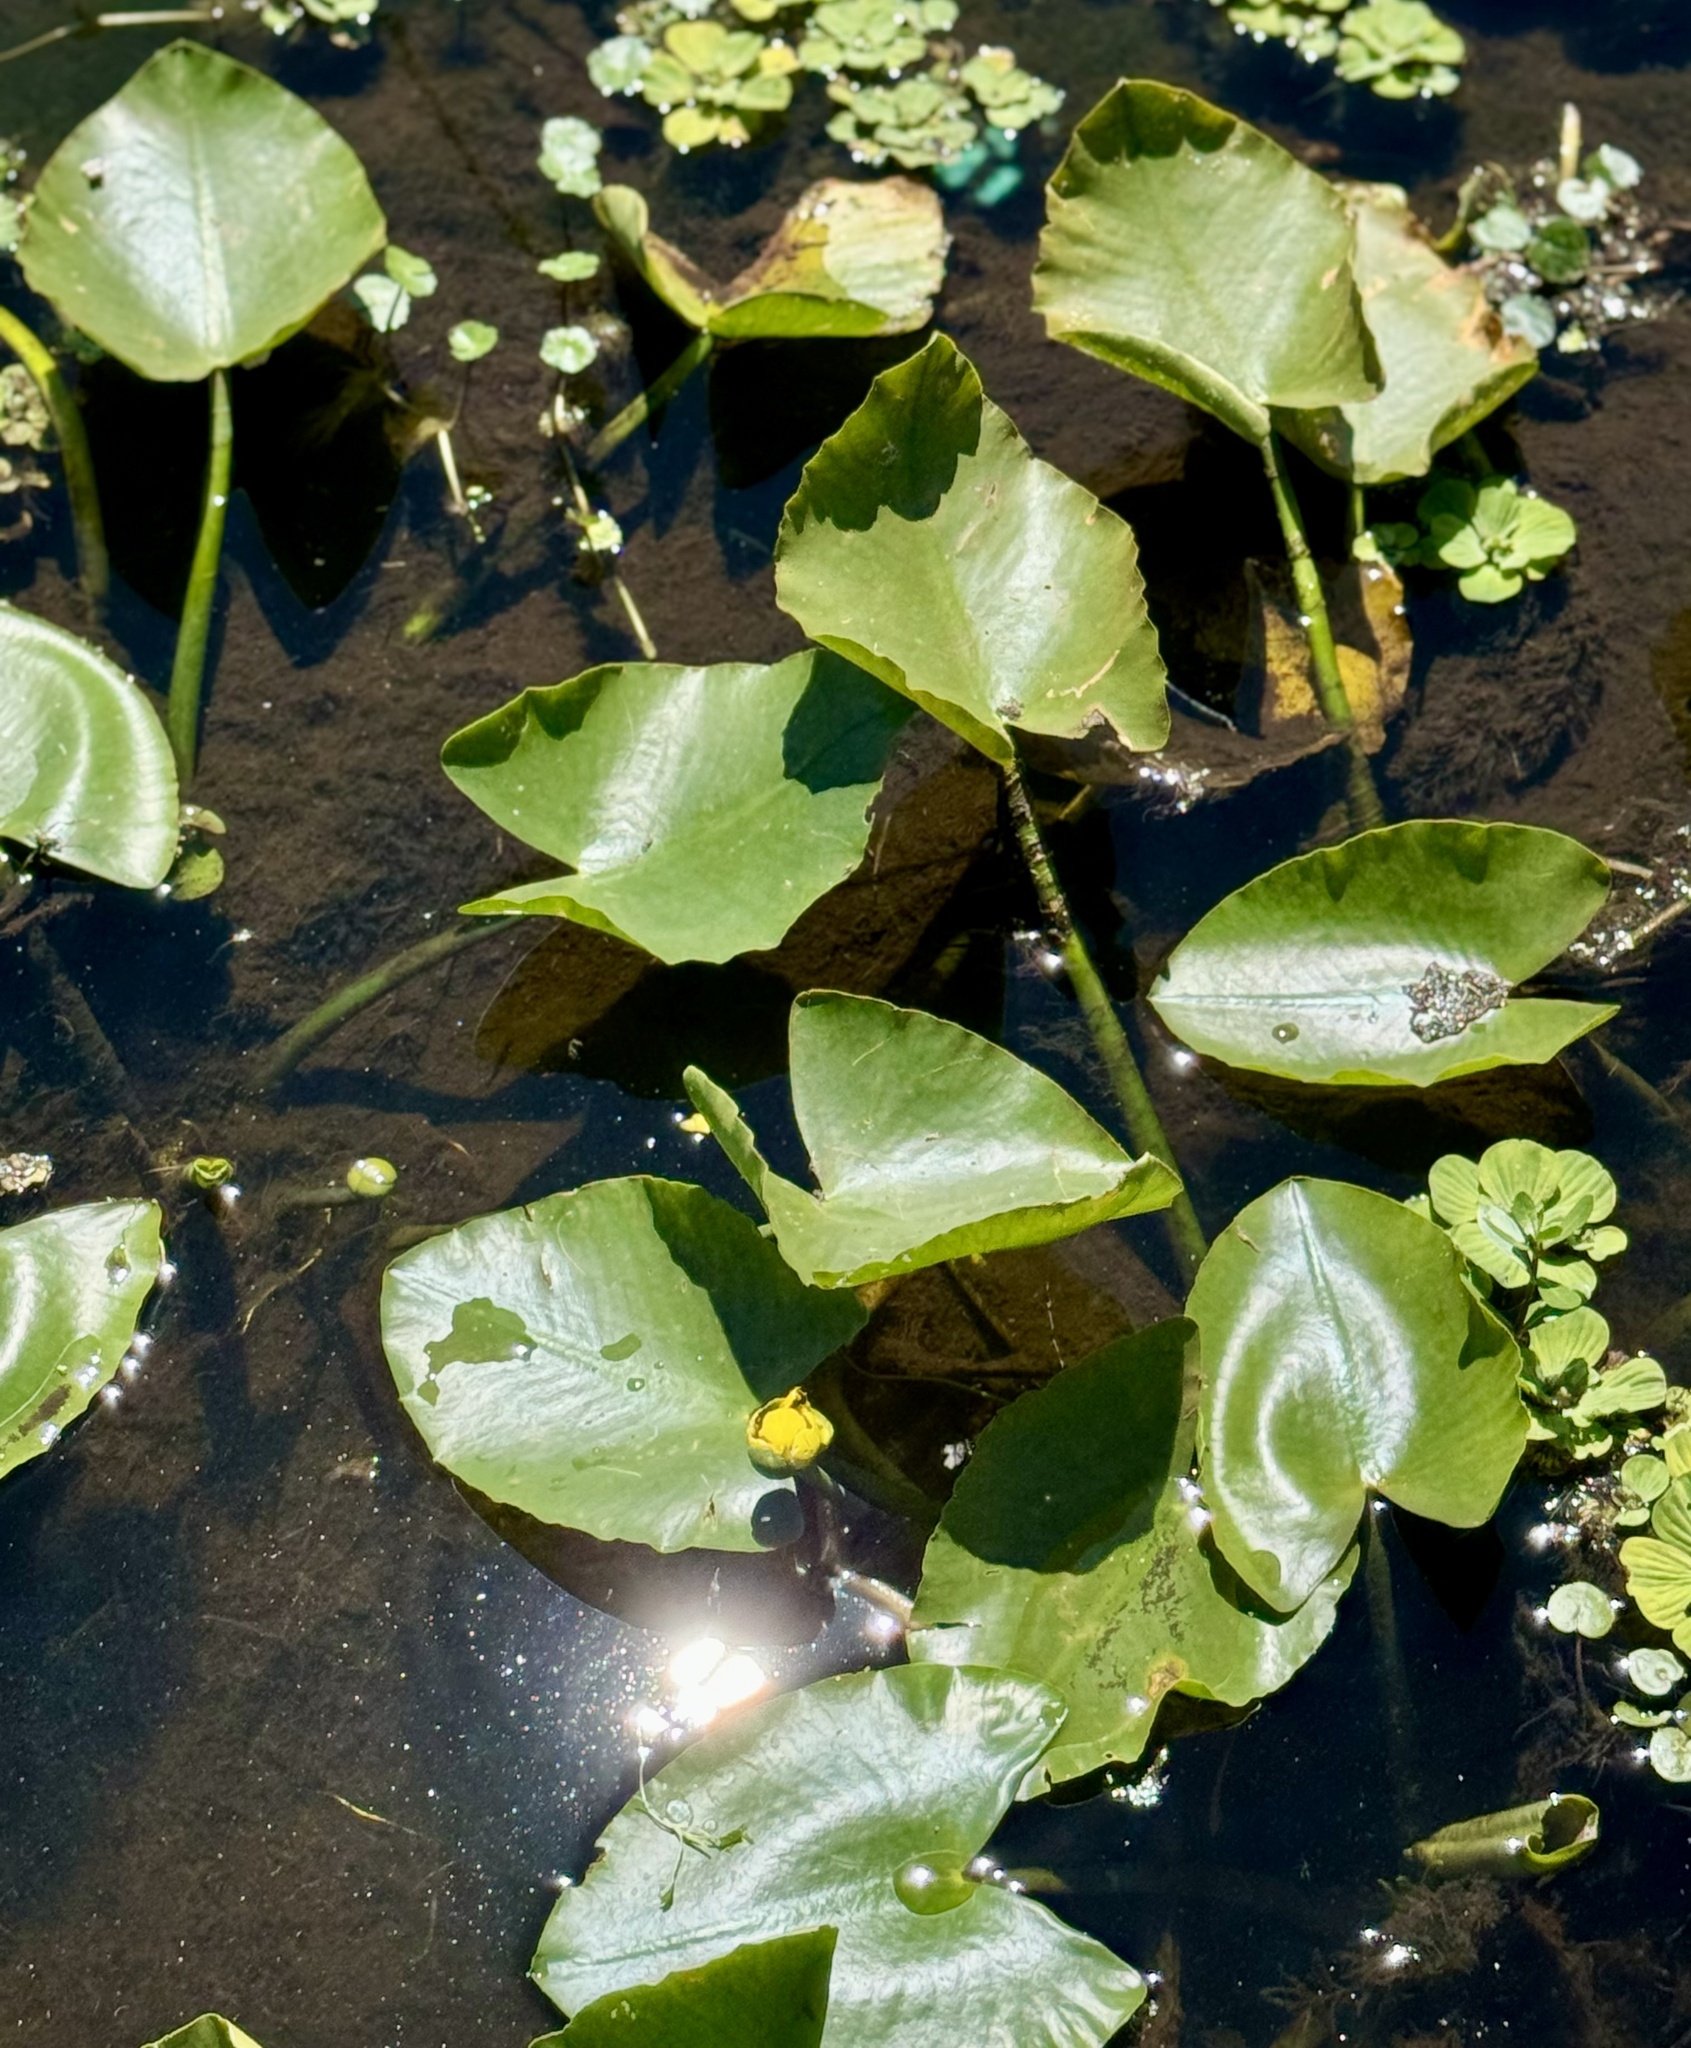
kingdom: Plantae
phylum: Tracheophyta
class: Magnoliopsida
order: Nymphaeales
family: Nymphaeaceae
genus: Nuphar
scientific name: Nuphar advena
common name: Spatter-dock
